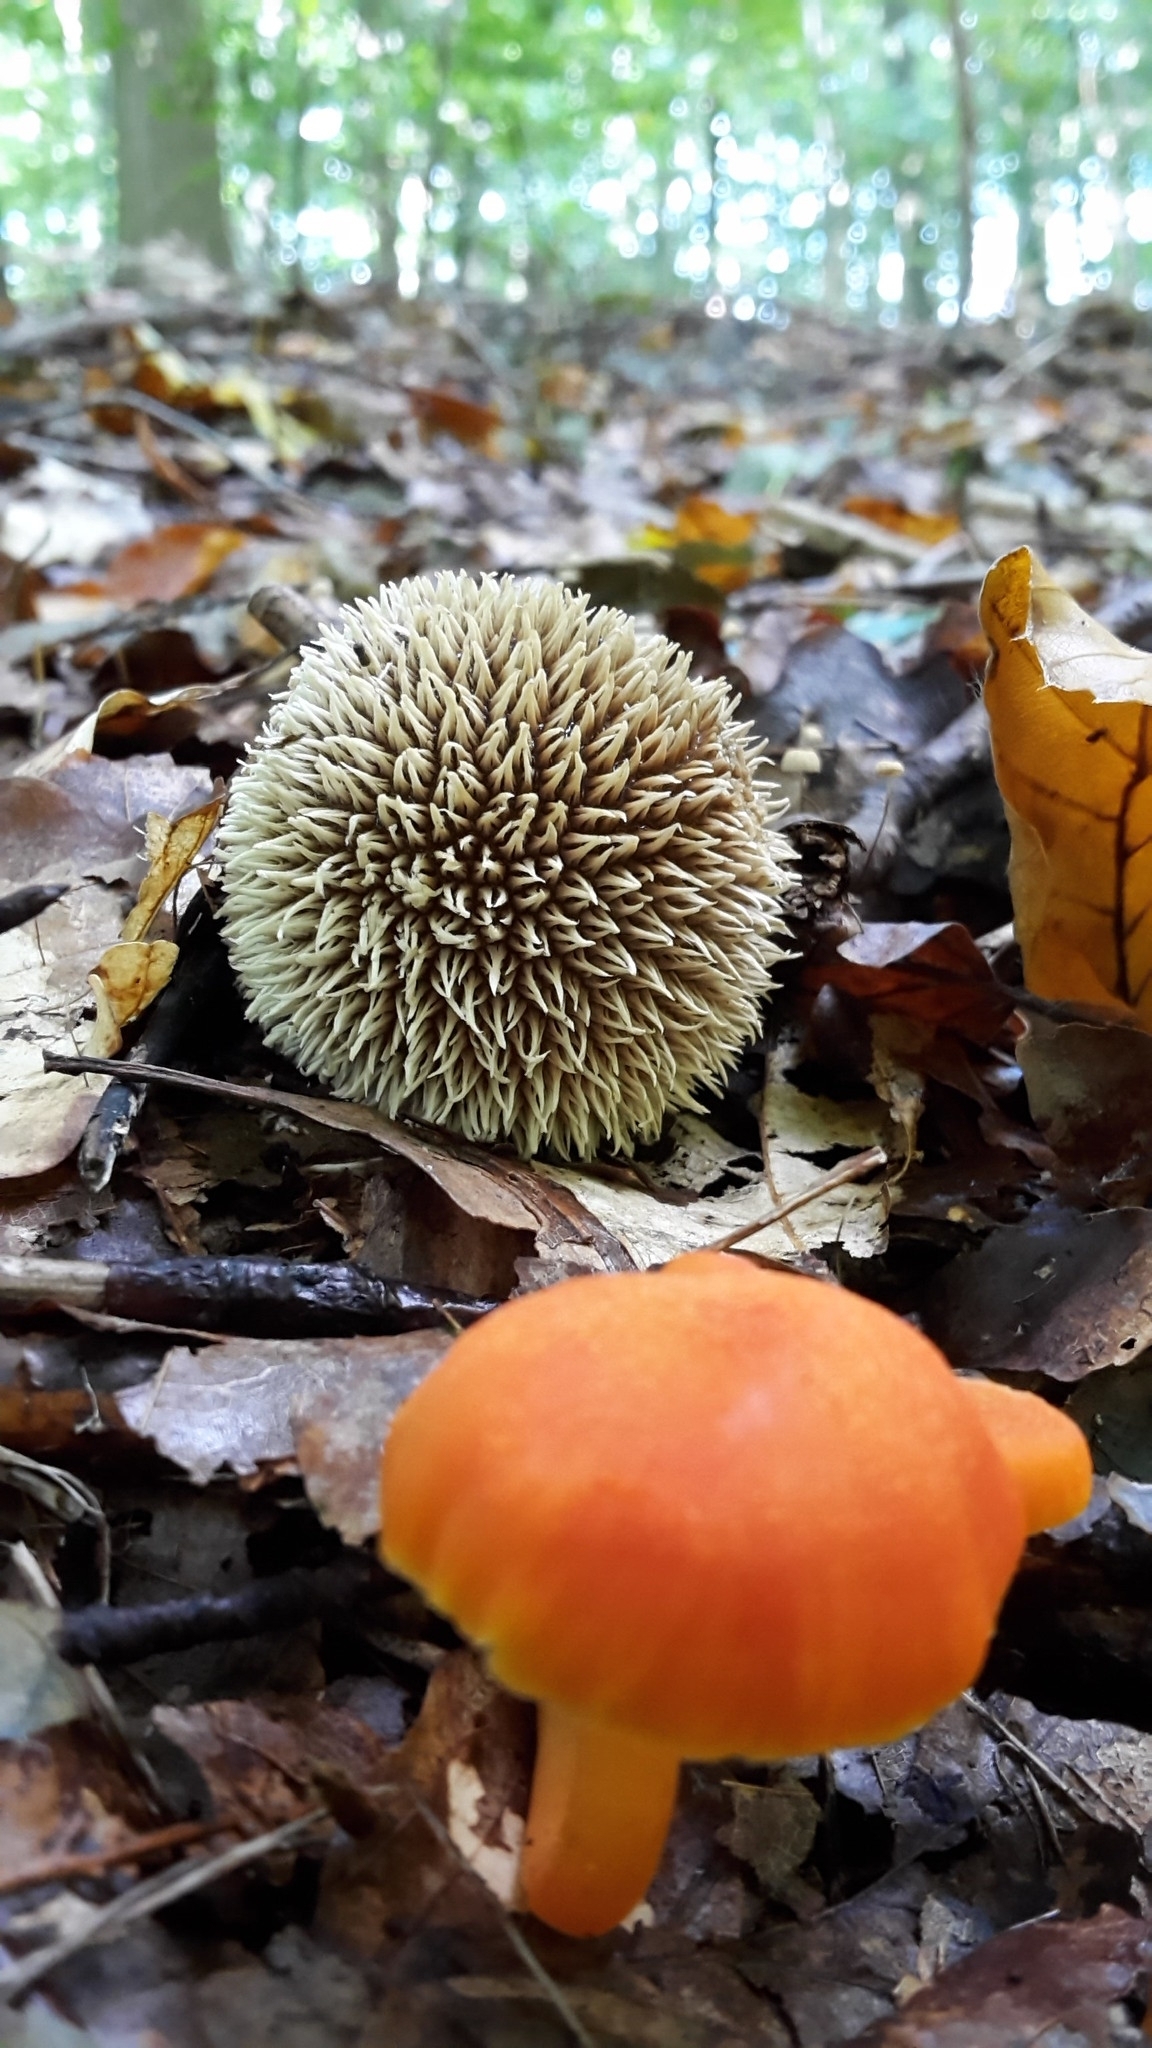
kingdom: Fungi
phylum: Basidiomycota
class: Agaricomycetes
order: Agaricales
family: Lycoperdaceae
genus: Lycoperdon
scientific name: Lycoperdon echinatum
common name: Hedgehog puffball
